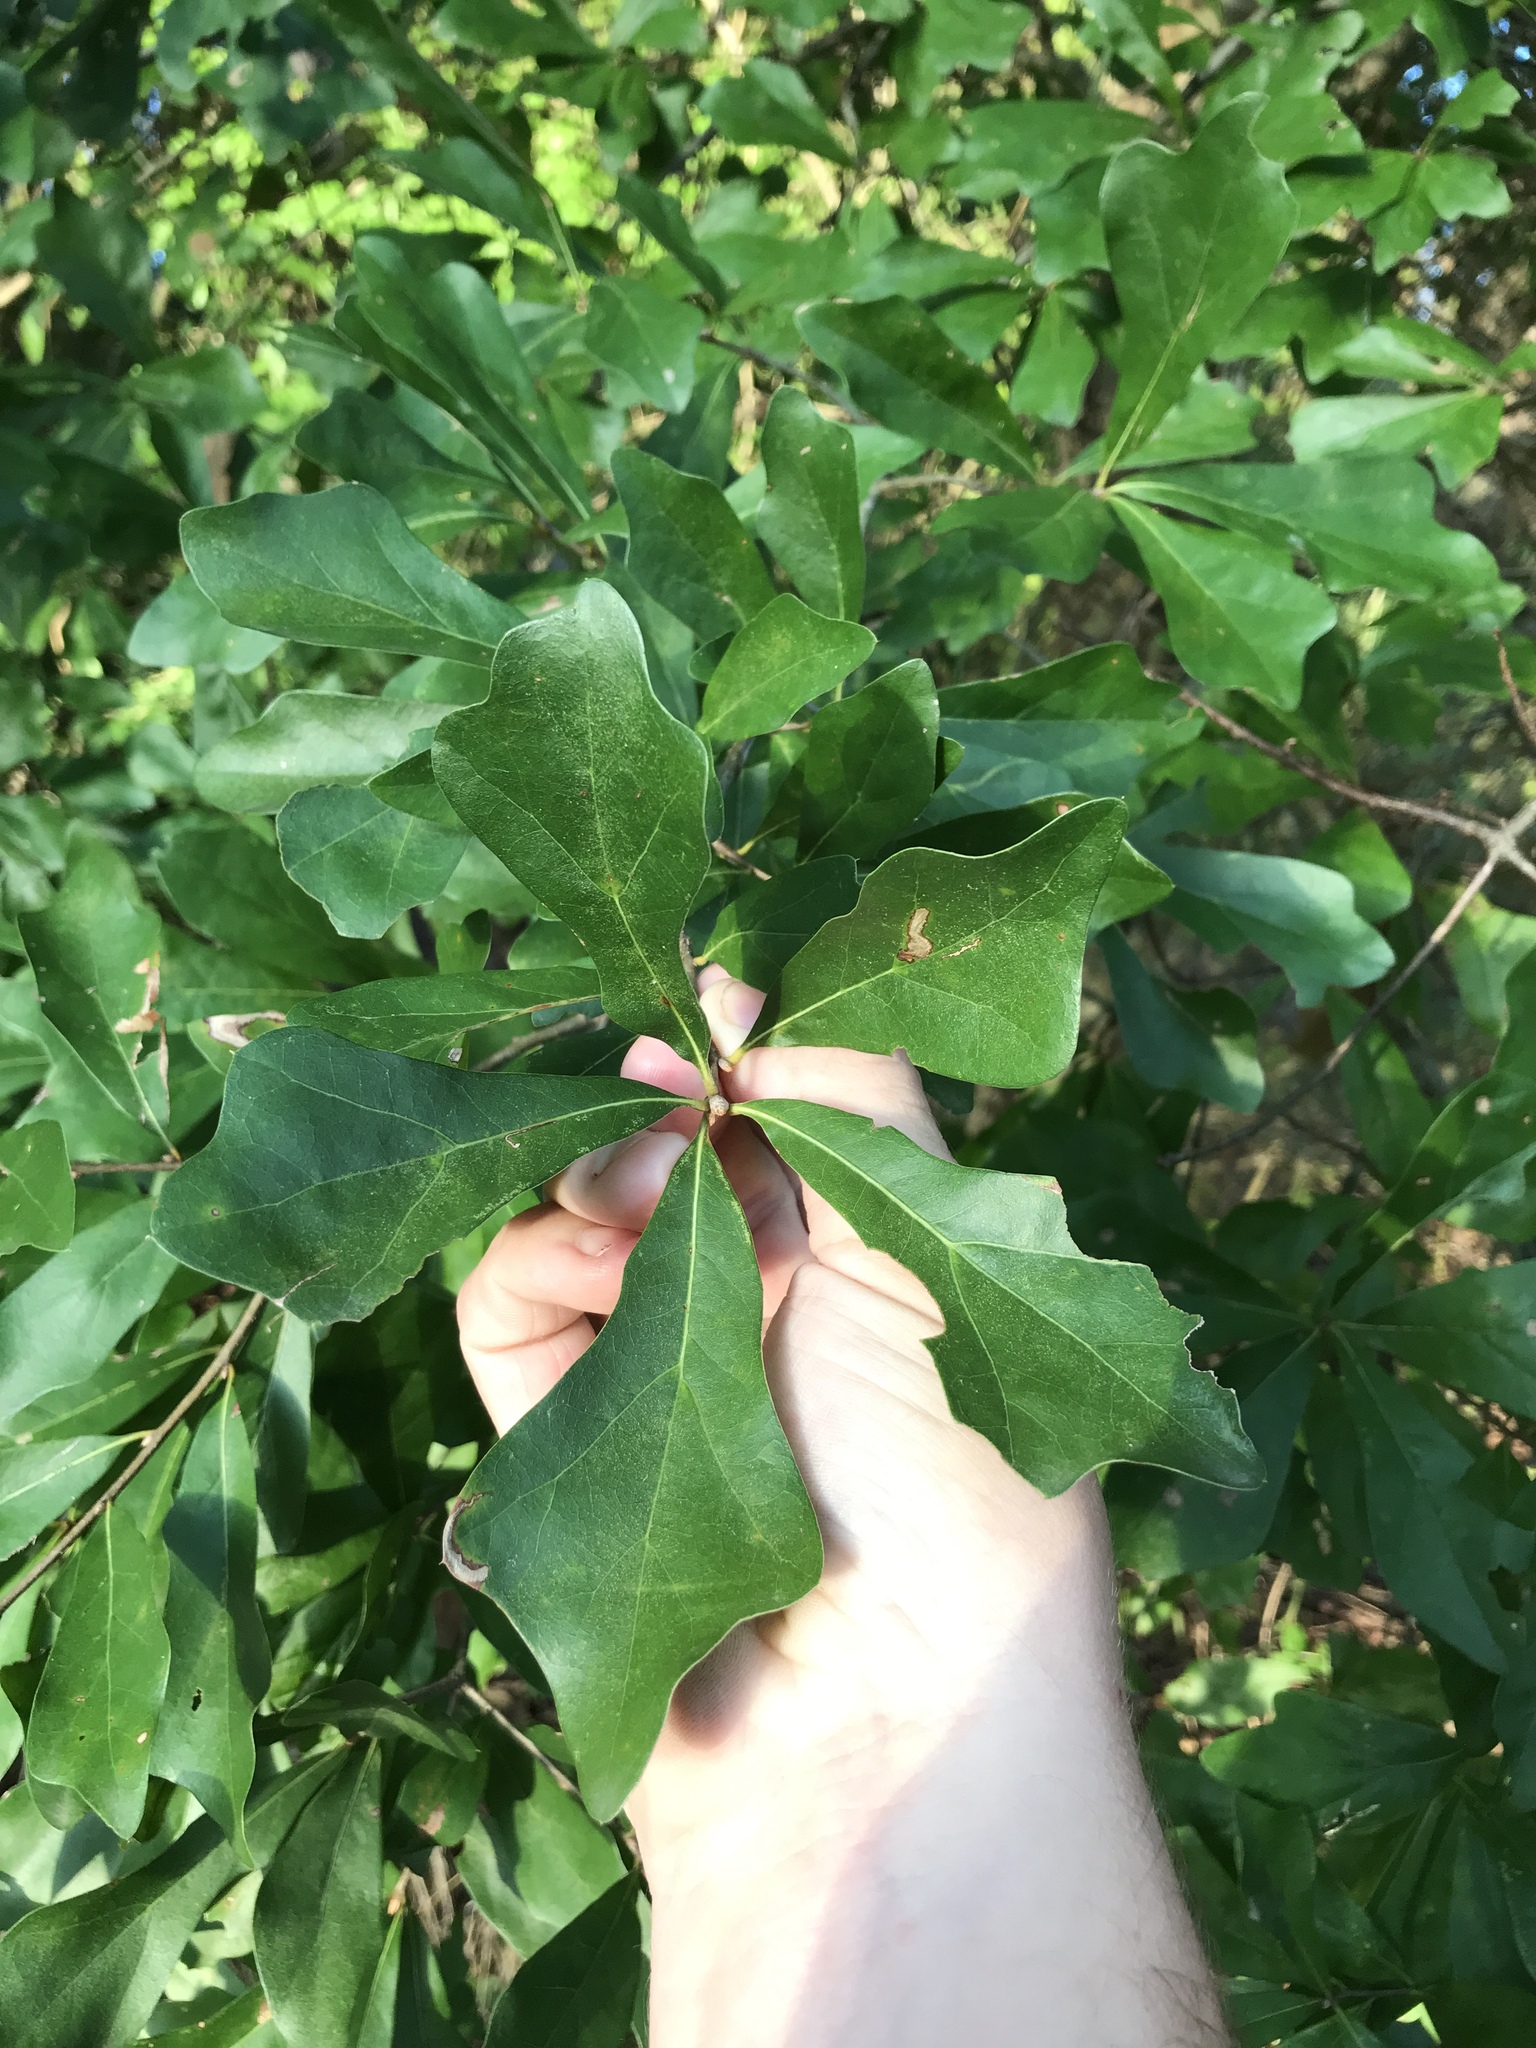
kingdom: Plantae
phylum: Tracheophyta
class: Magnoliopsida
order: Fagales
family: Fagaceae
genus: Quercus
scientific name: Quercus nigra
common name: Water oak
